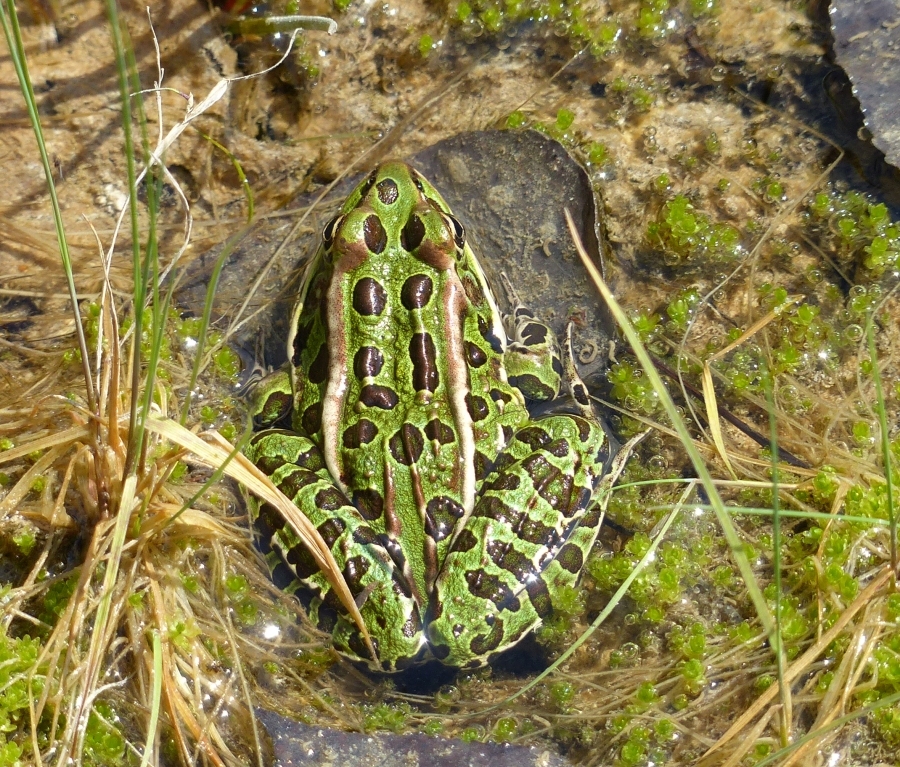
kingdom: Animalia
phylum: Chordata
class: Amphibia
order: Anura
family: Ranidae
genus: Lithobates
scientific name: Lithobates pipiens
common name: Northern leopard frog
